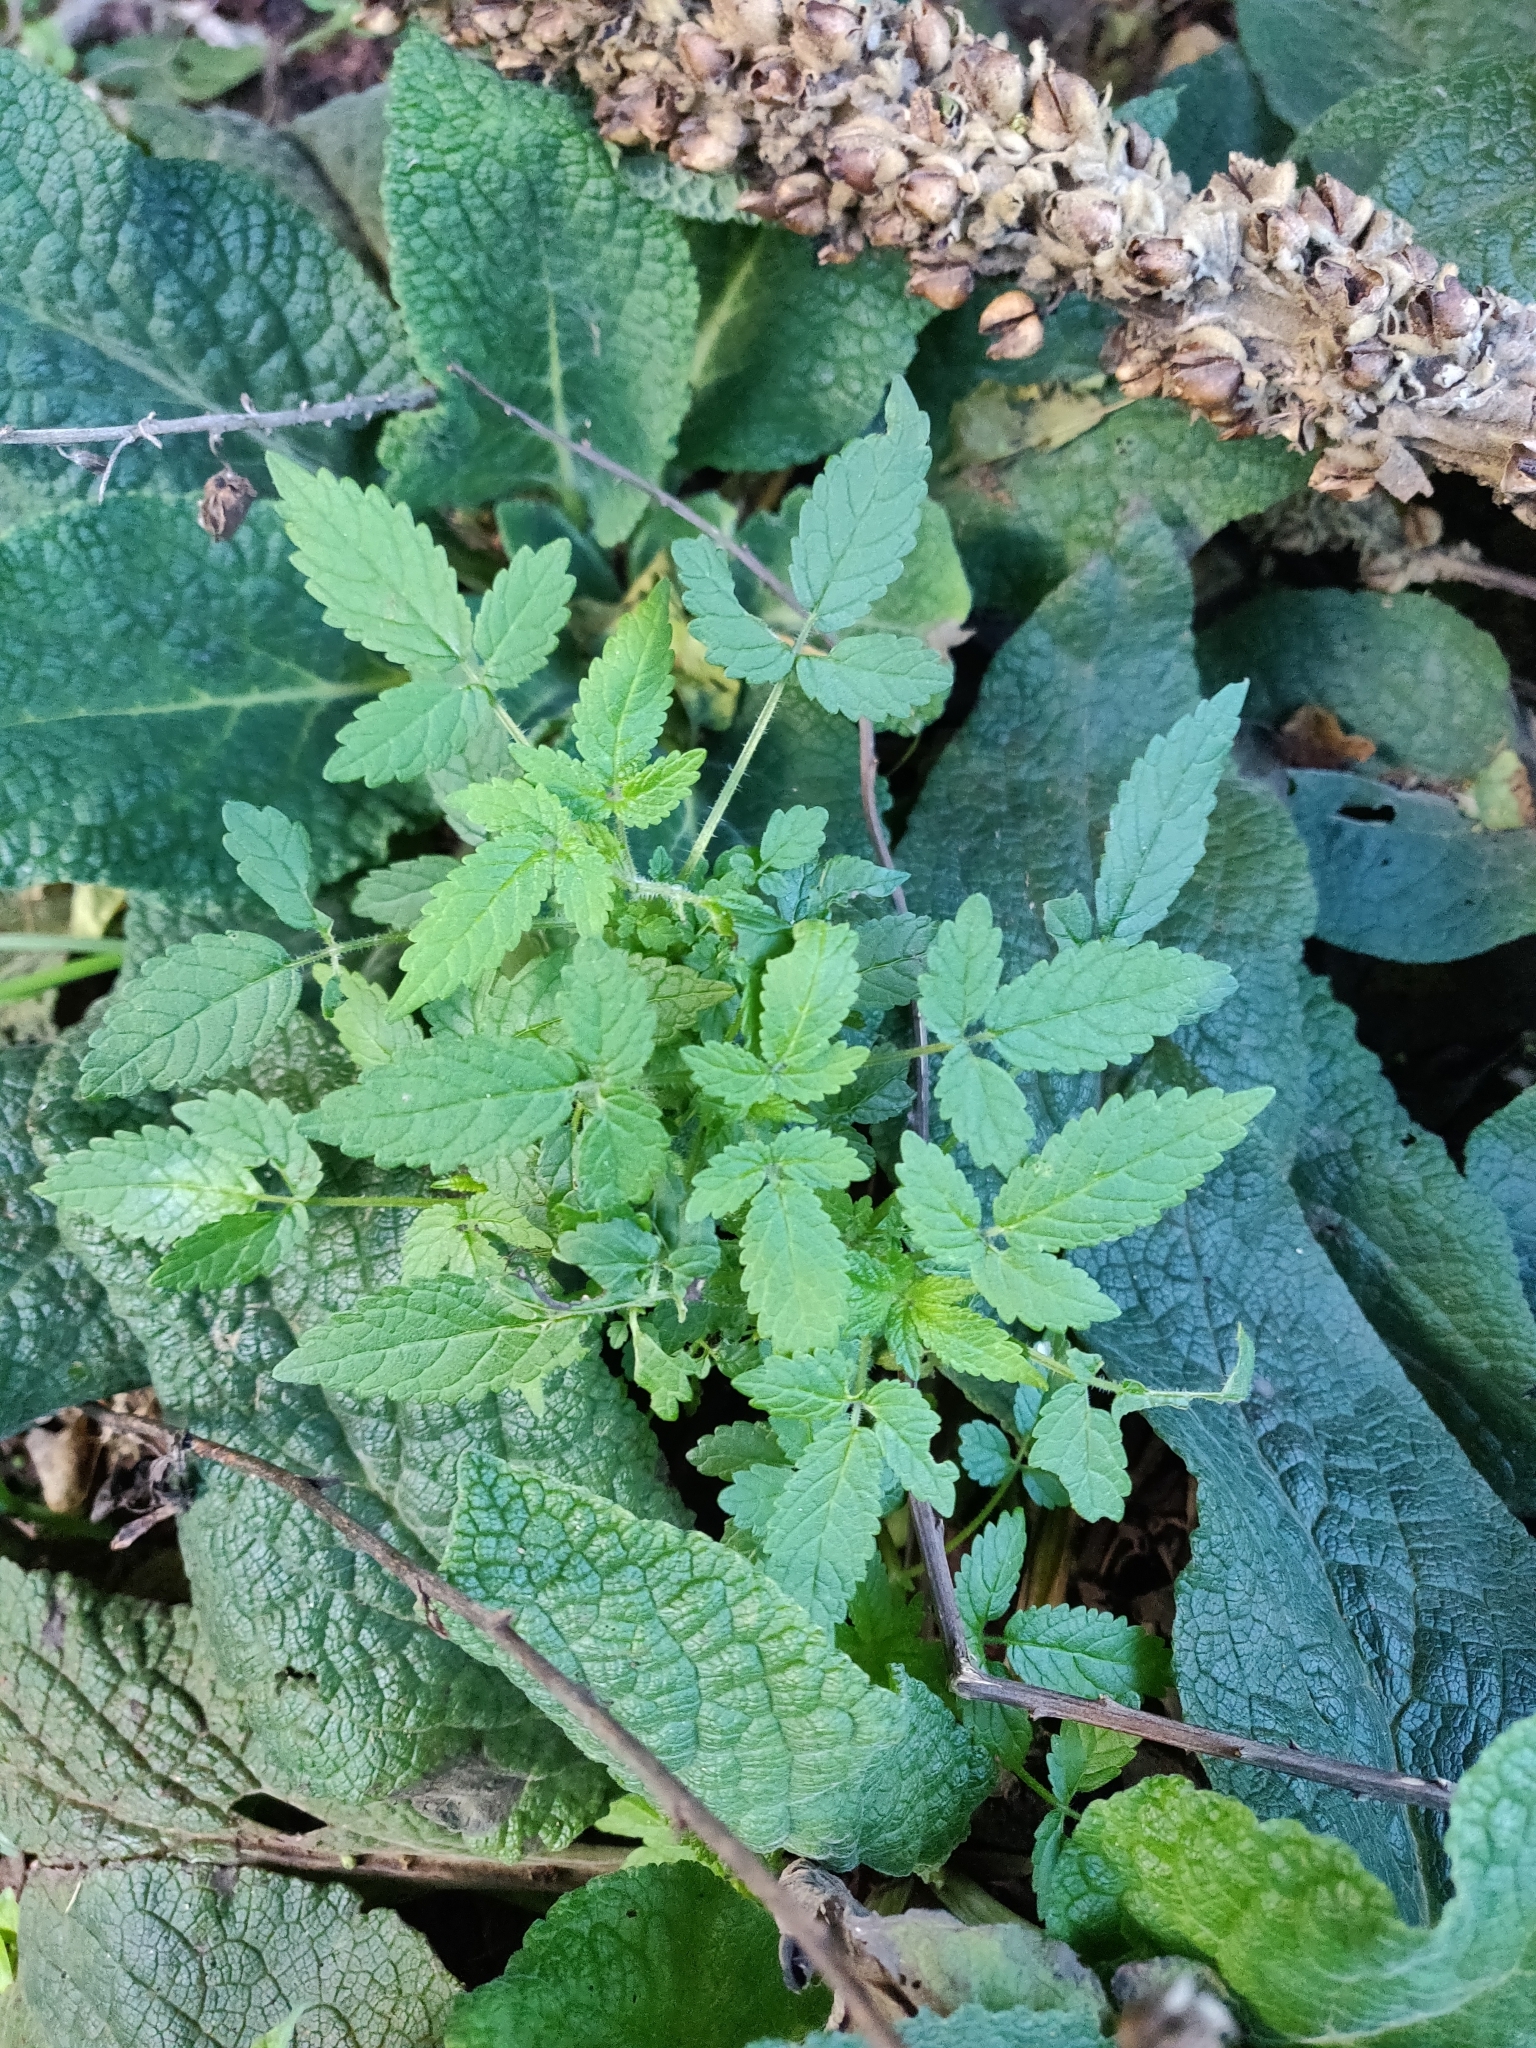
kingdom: Plantae
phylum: Tracheophyta
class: Magnoliopsida
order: Lamiales
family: Lamiaceae
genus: Cedronella
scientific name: Cedronella canariensis
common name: Canary islands balm
